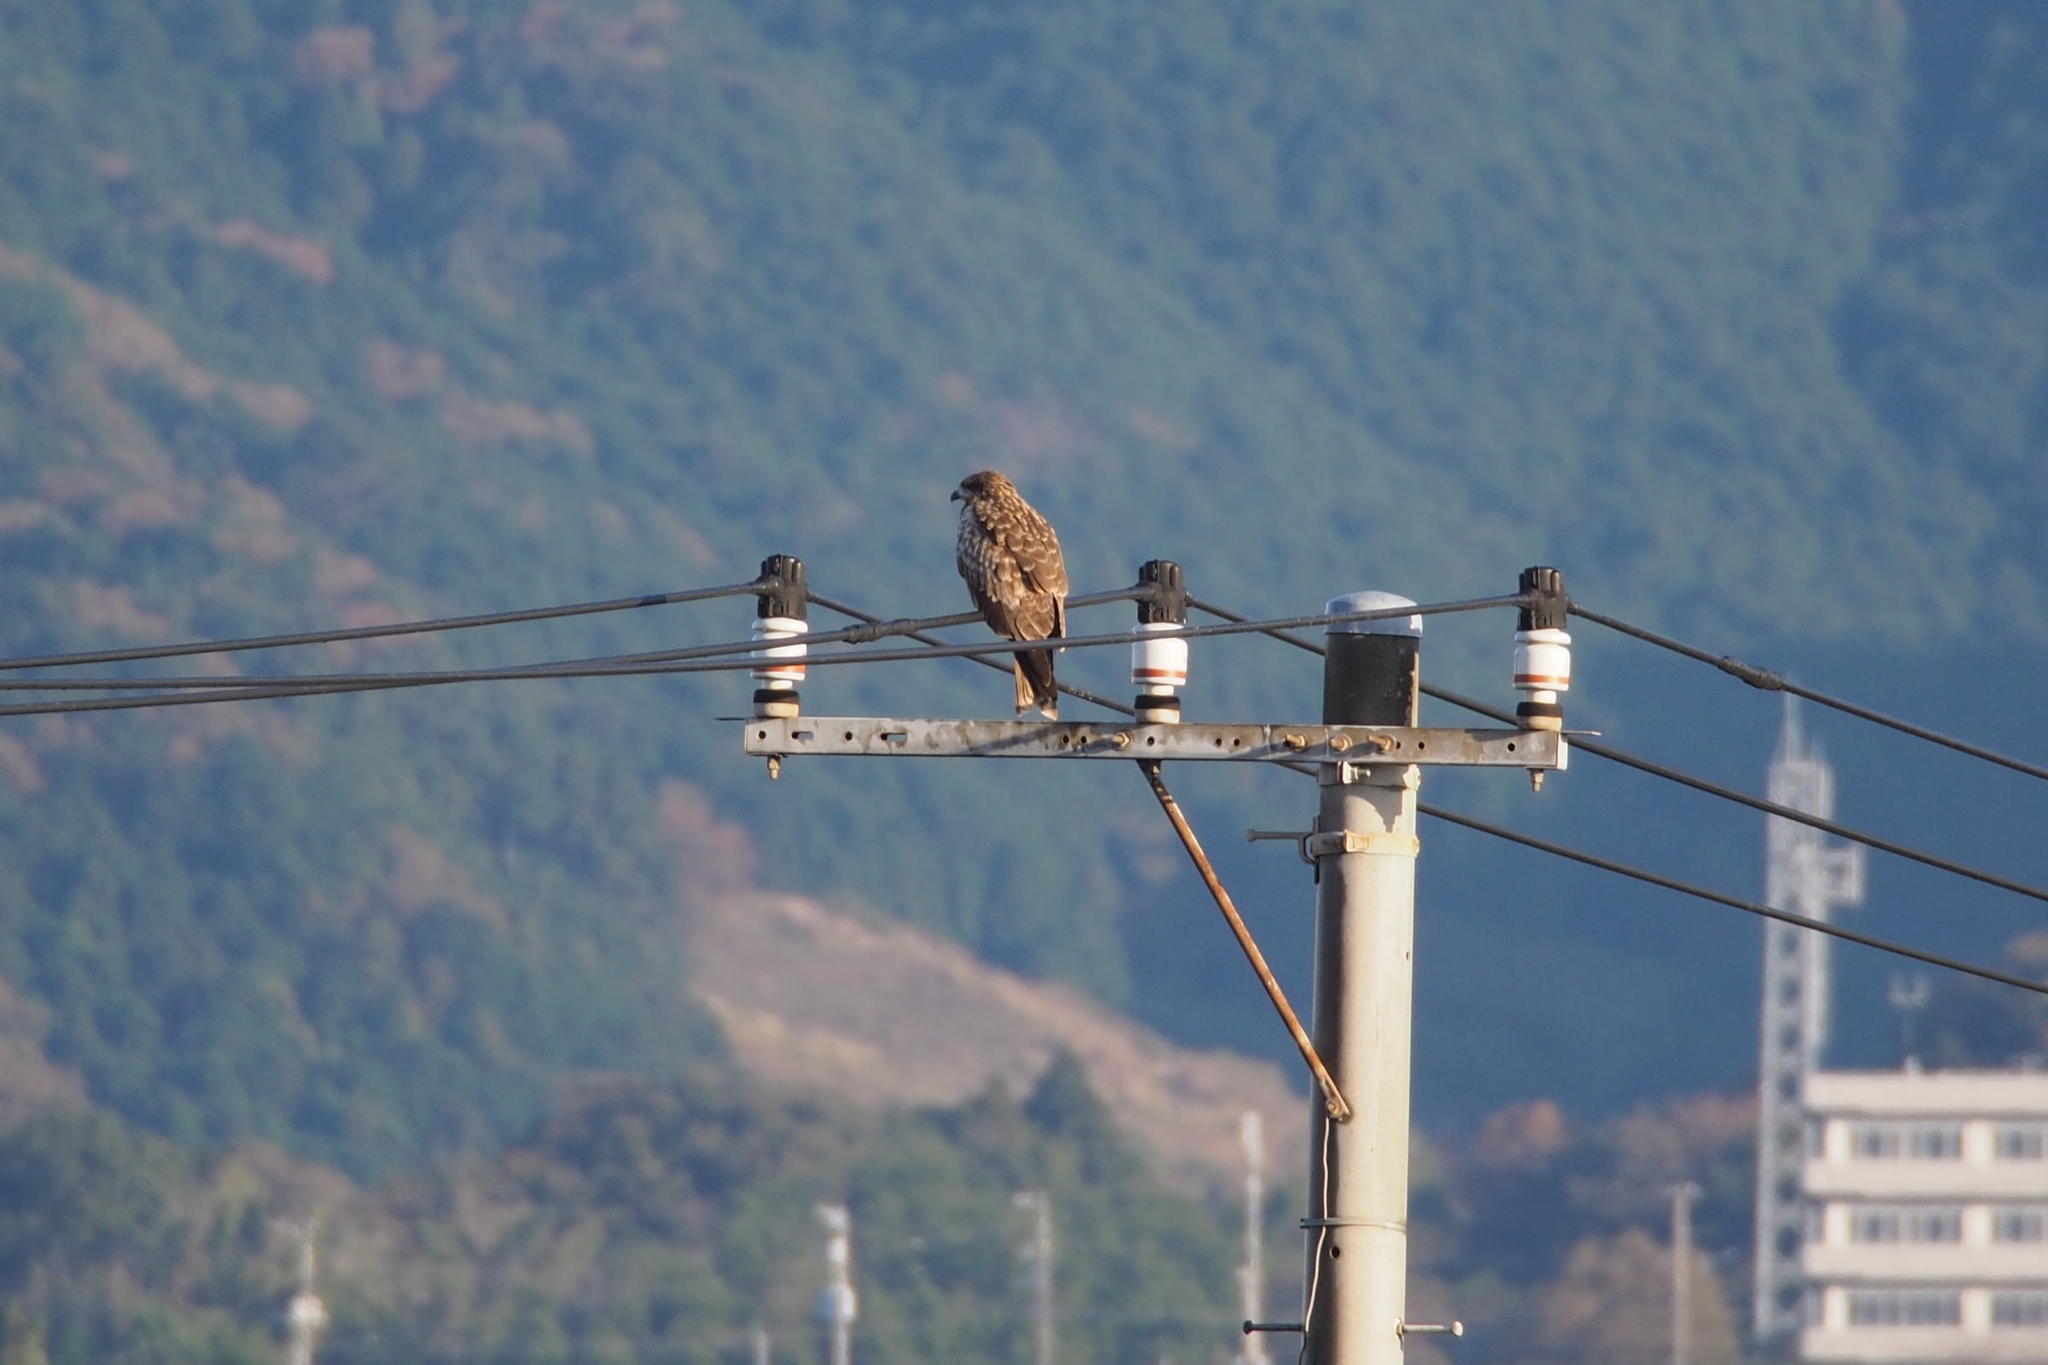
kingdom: Animalia
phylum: Chordata
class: Aves
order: Accipitriformes
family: Accipitridae
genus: Milvus
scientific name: Milvus migrans
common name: Black kite
